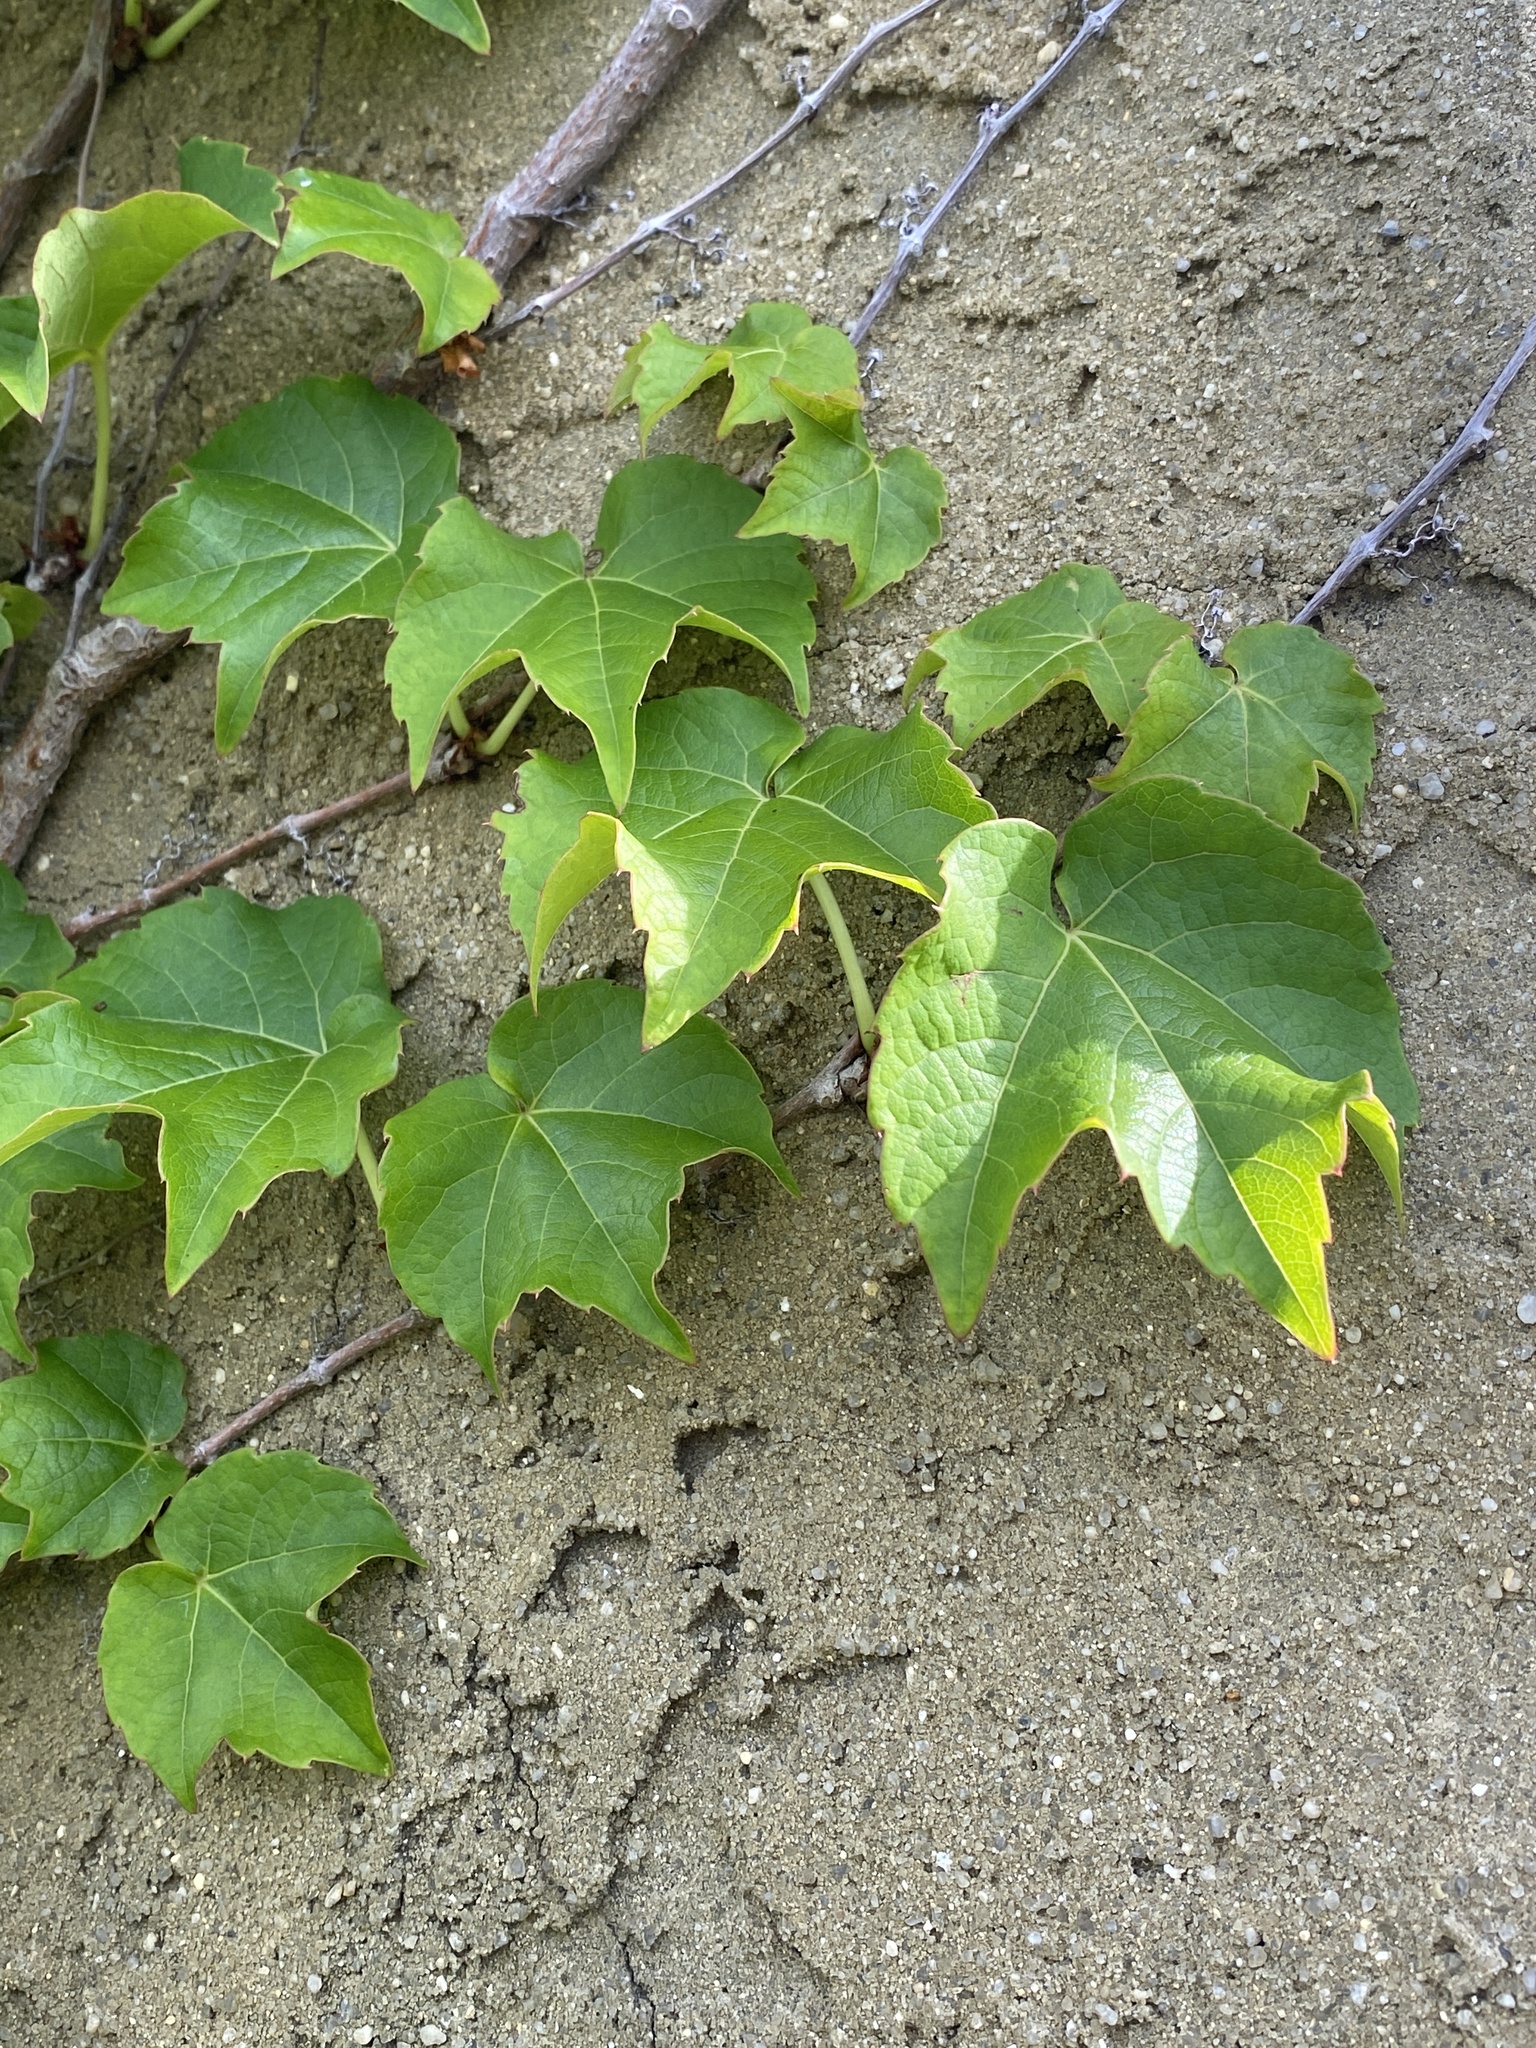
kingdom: Plantae
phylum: Tracheophyta
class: Magnoliopsida
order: Vitales
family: Vitaceae
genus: Parthenocissus
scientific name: Parthenocissus tricuspidata
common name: Boston ivy
